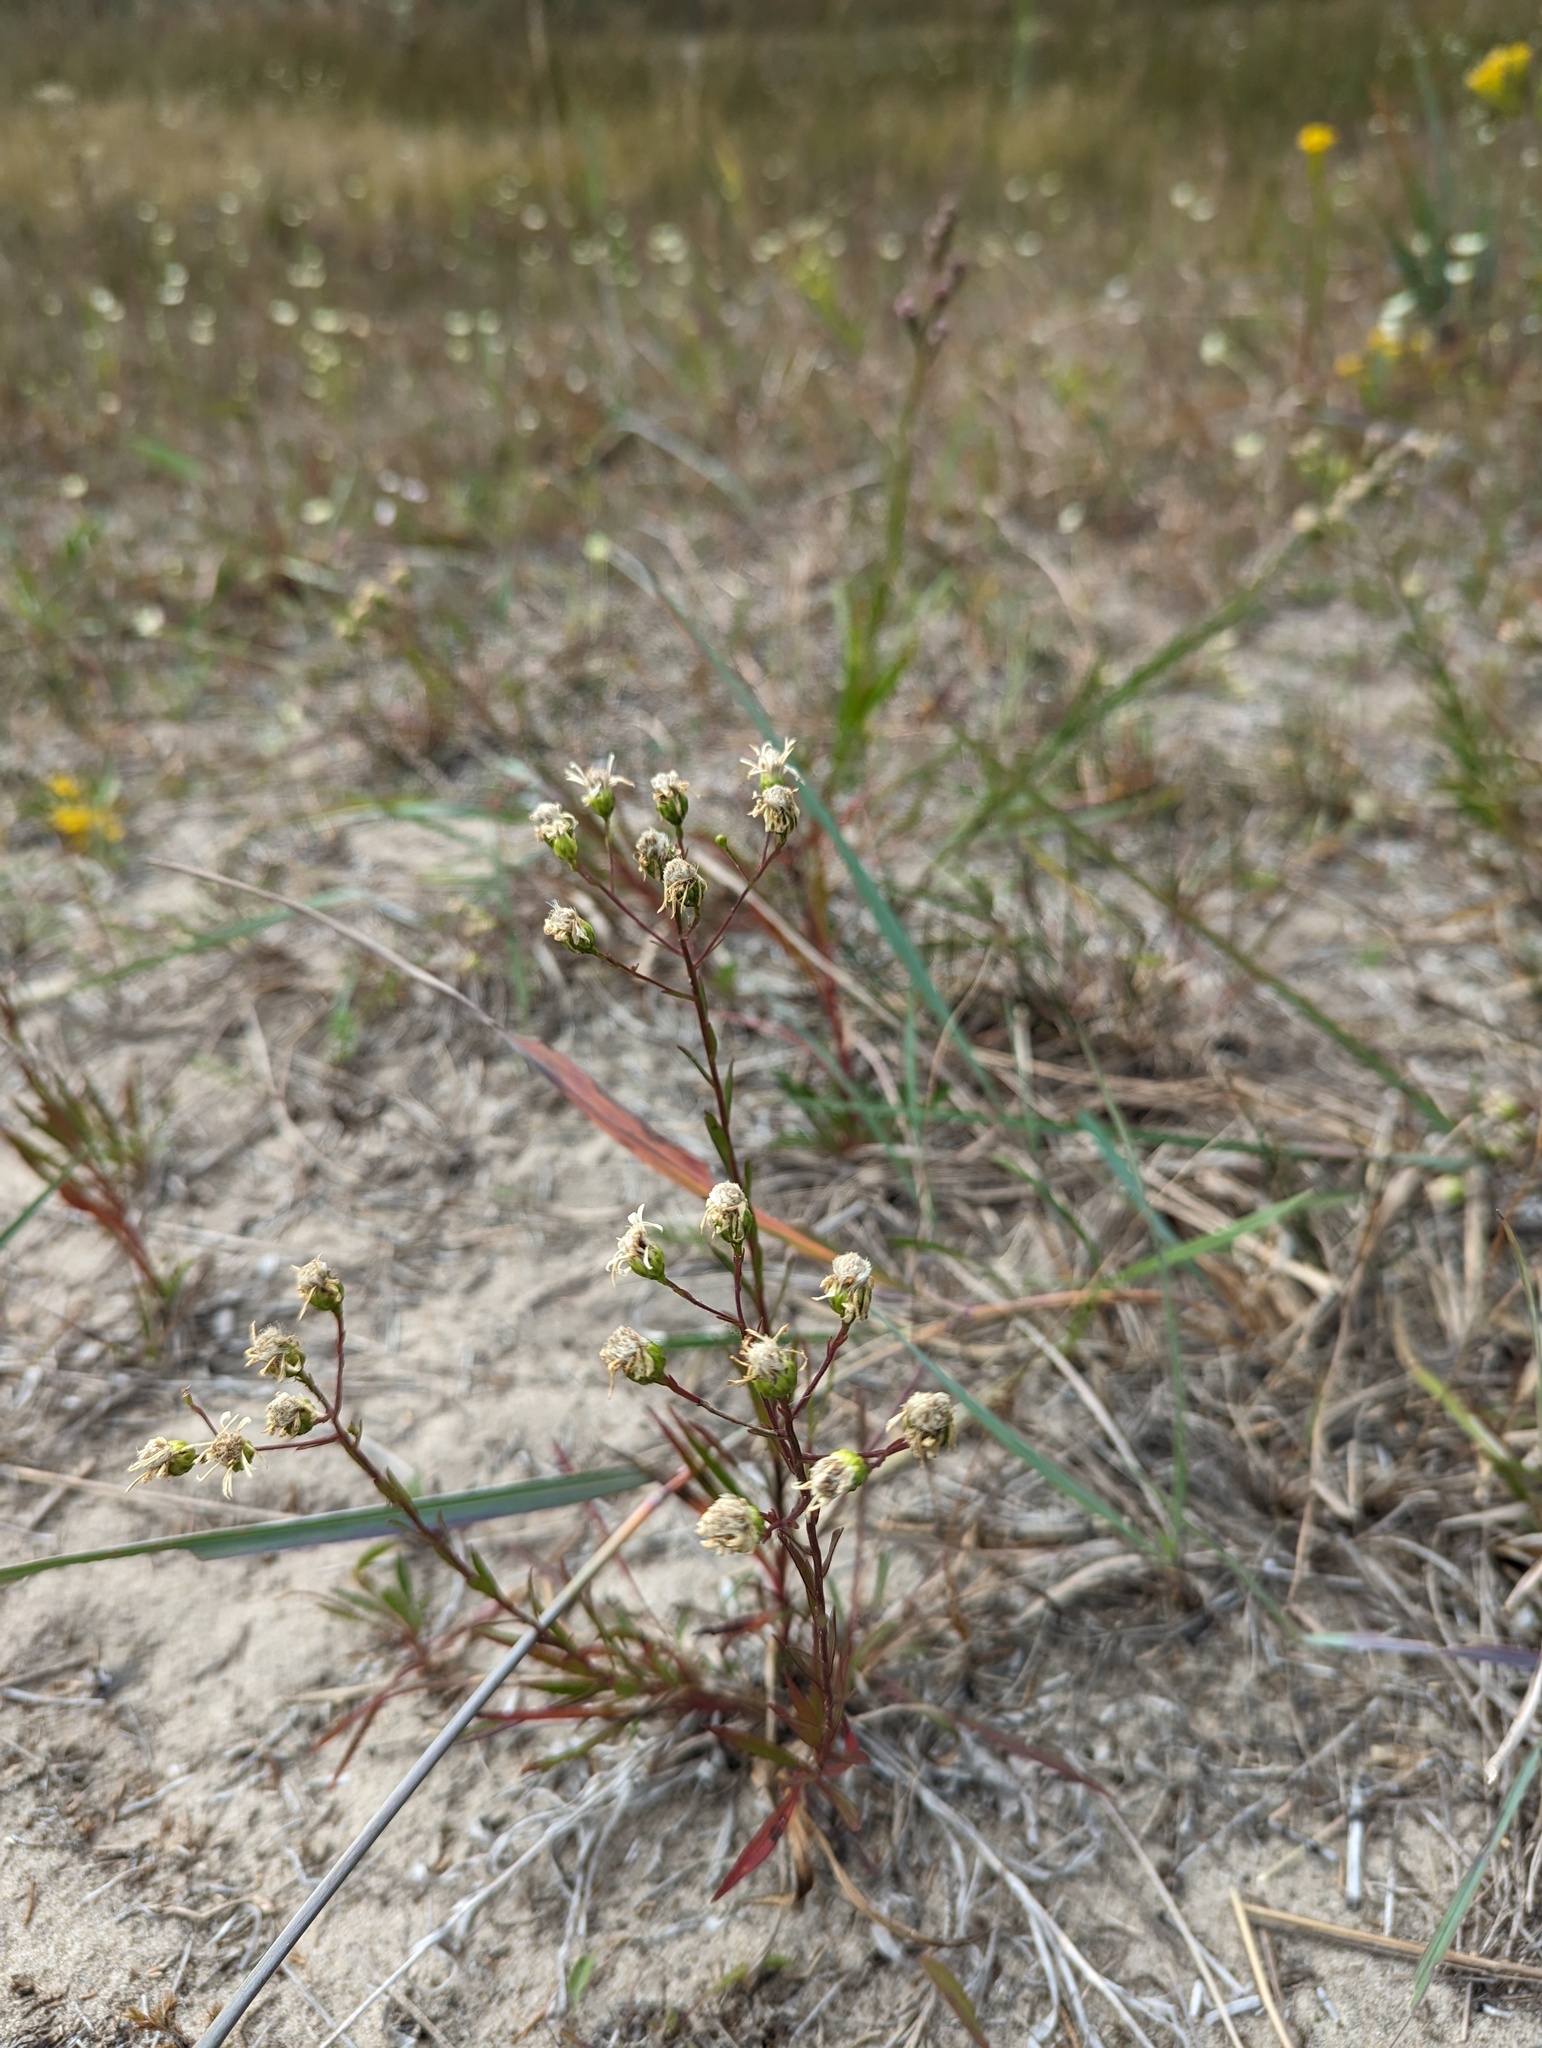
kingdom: Plantae
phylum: Tracheophyta
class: Magnoliopsida
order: Asterales
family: Asteraceae
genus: Solidago
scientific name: Solidago ptarmicoides
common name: White flat-top goldenrod
